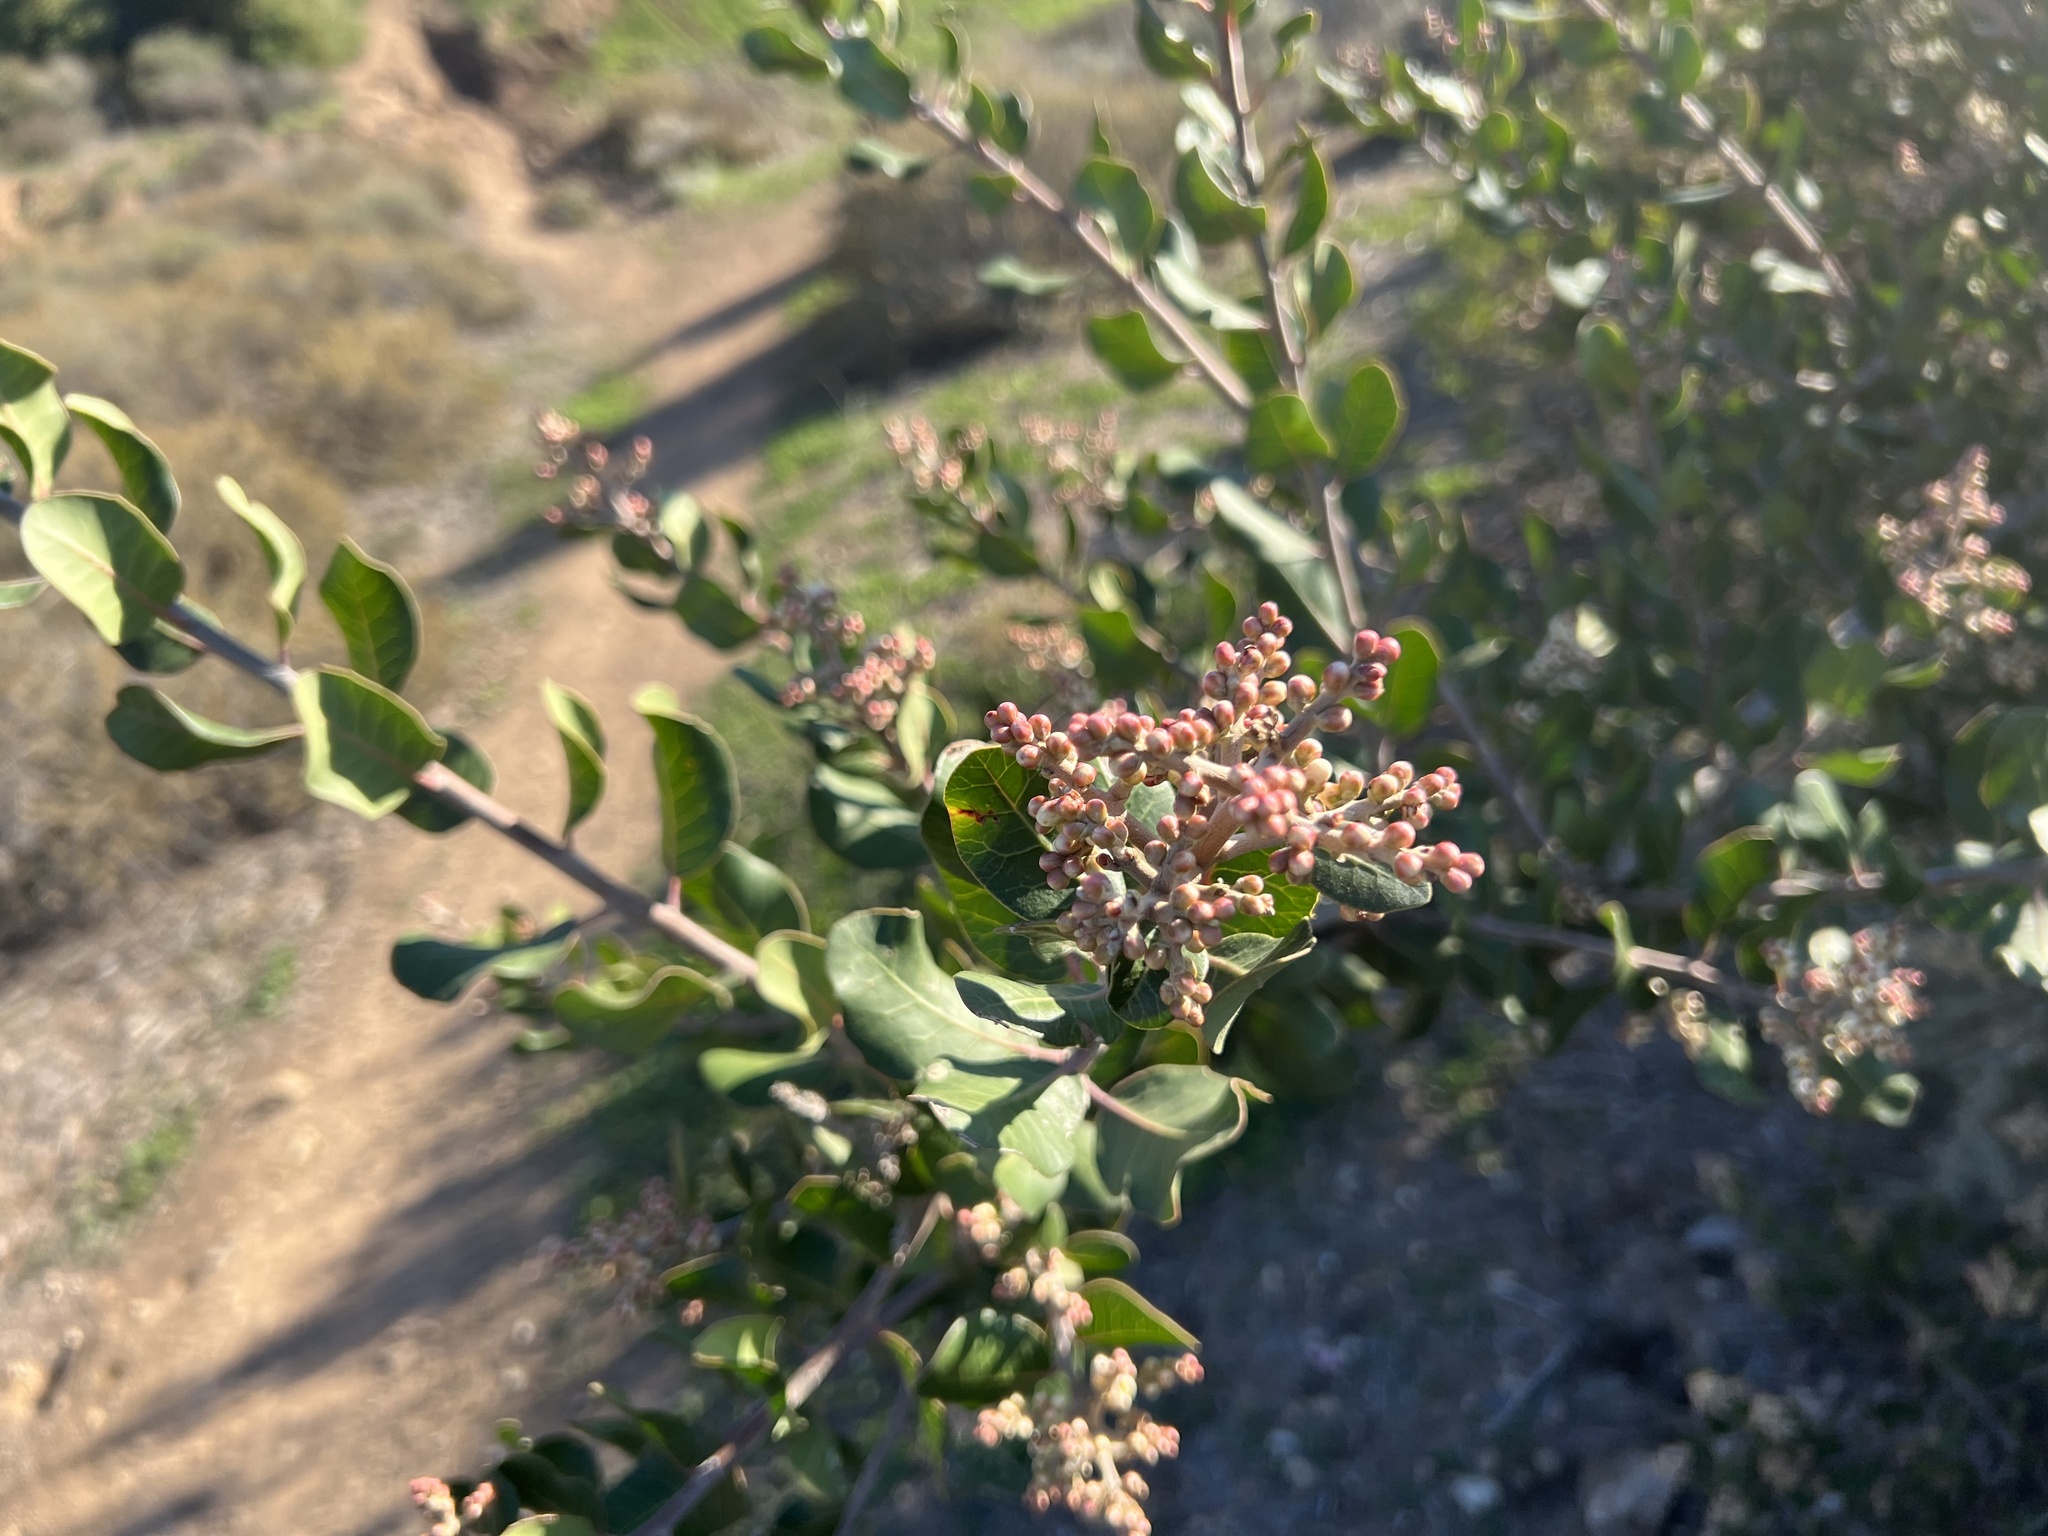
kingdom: Plantae
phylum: Tracheophyta
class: Magnoliopsida
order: Sapindales
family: Anacardiaceae
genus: Rhus
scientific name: Rhus integrifolia
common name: Lemonade sumac
